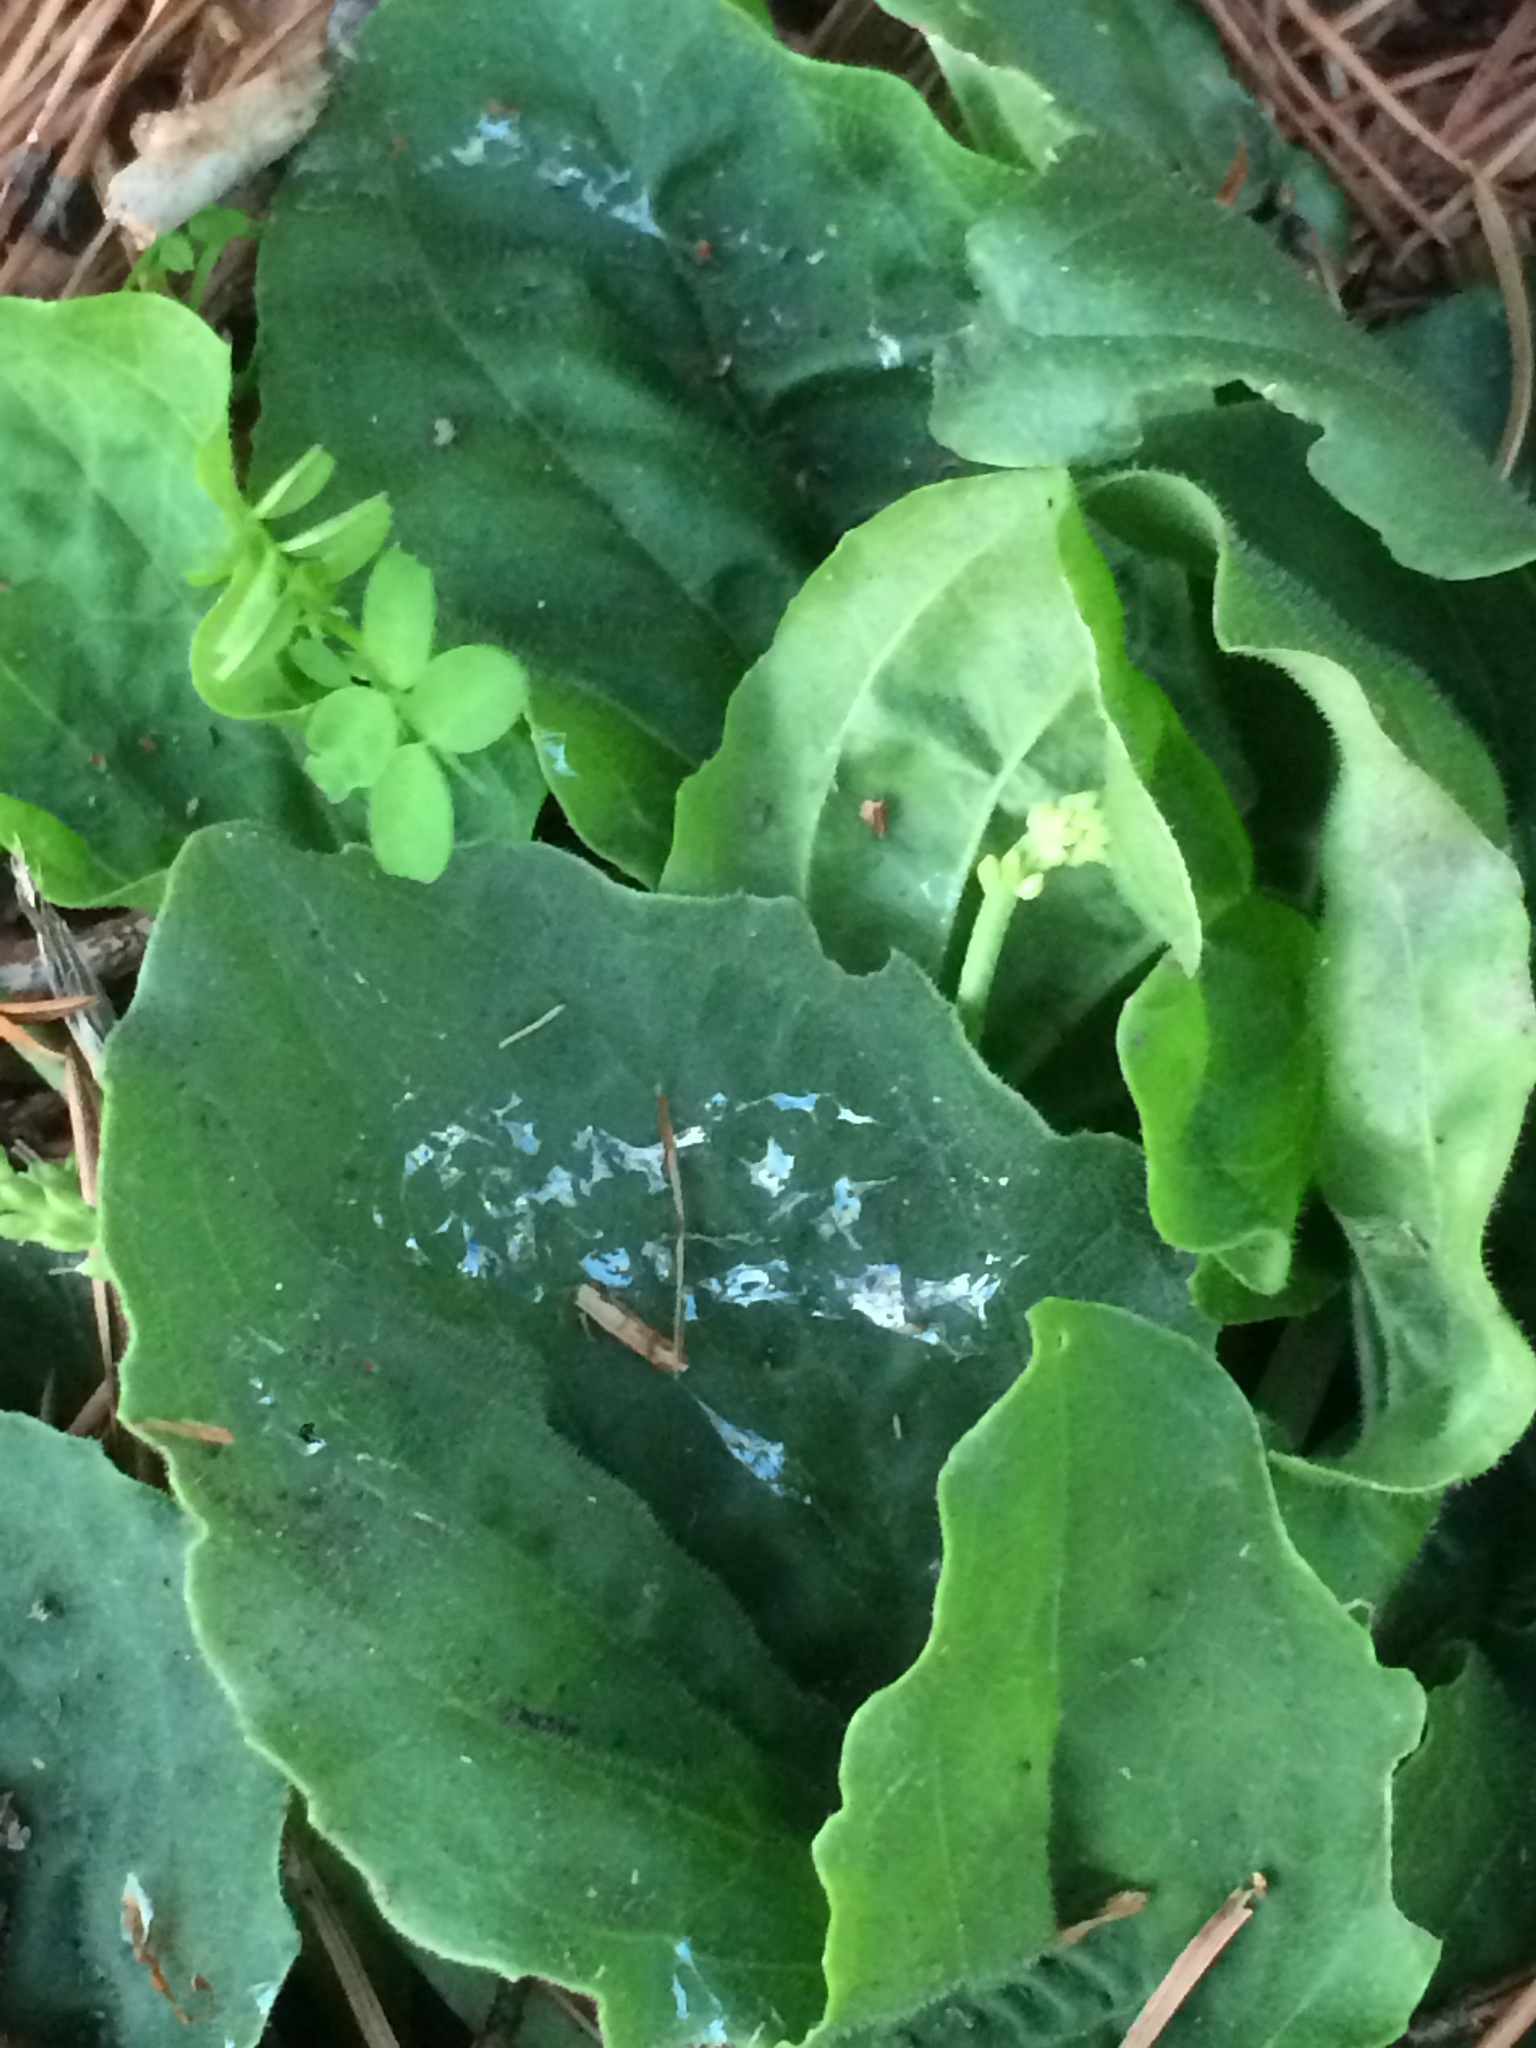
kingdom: Plantae
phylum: Tracheophyta
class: Magnoliopsida
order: Lamiales
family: Plantaginaceae
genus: Plantago
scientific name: Plantago major
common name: Common plantain
